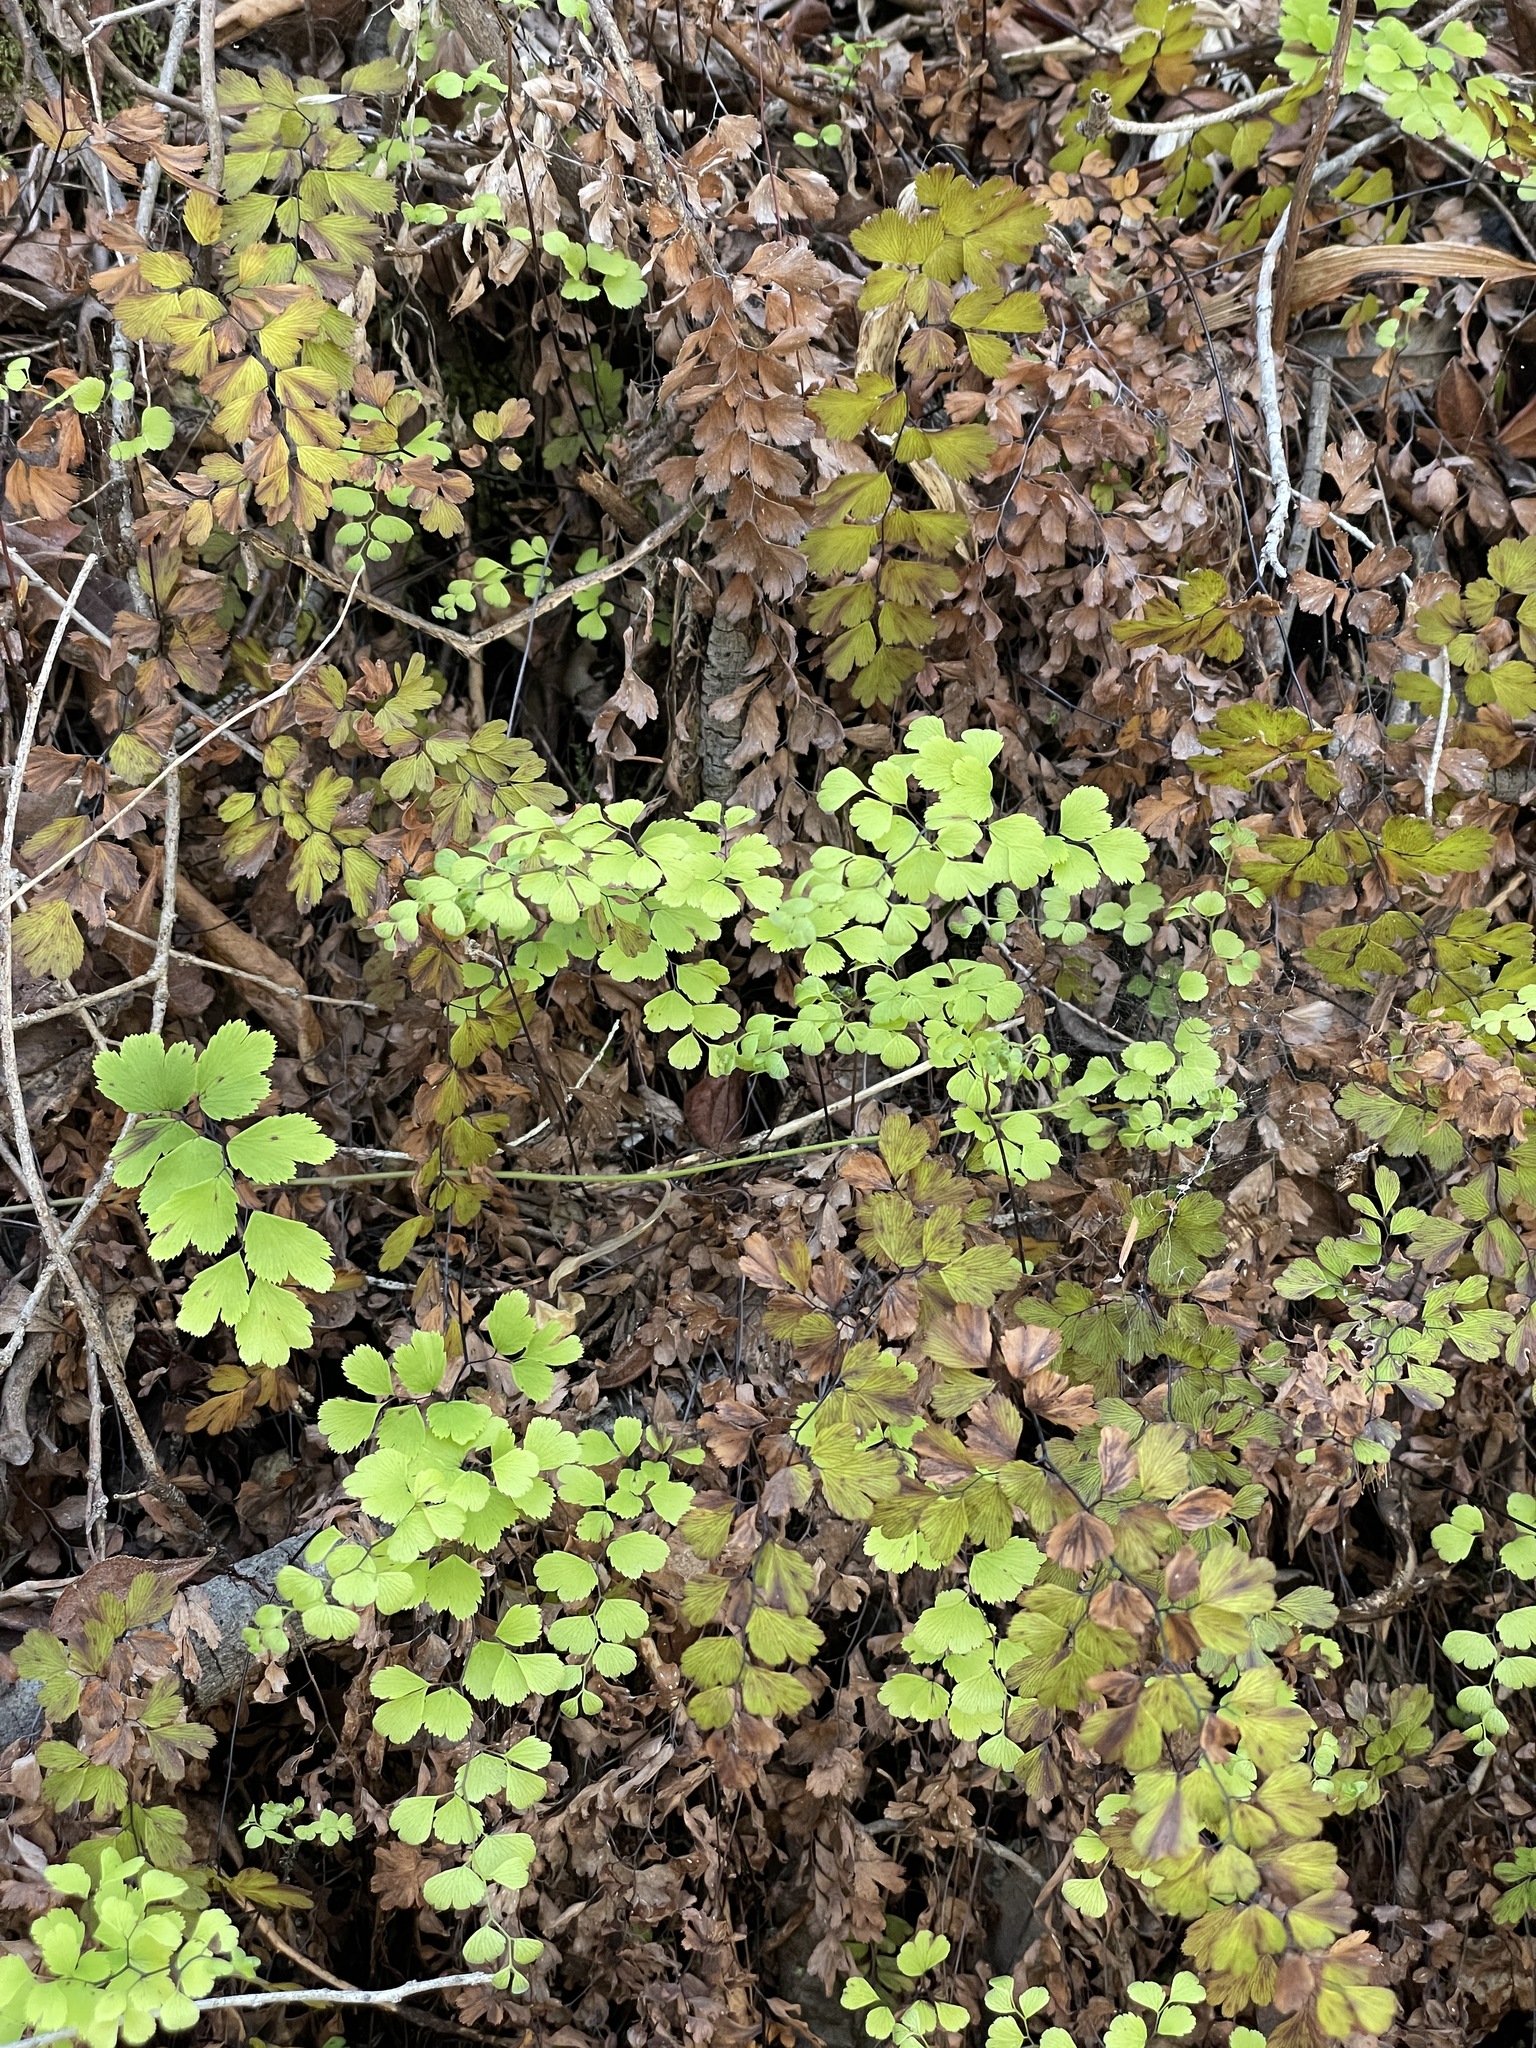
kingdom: Plantae
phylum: Tracheophyta
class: Polypodiopsida
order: Polypodiales
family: Pteridaceae
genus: Adiantum
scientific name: Adiantum capillus-veneris
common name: Maidenhair fern
